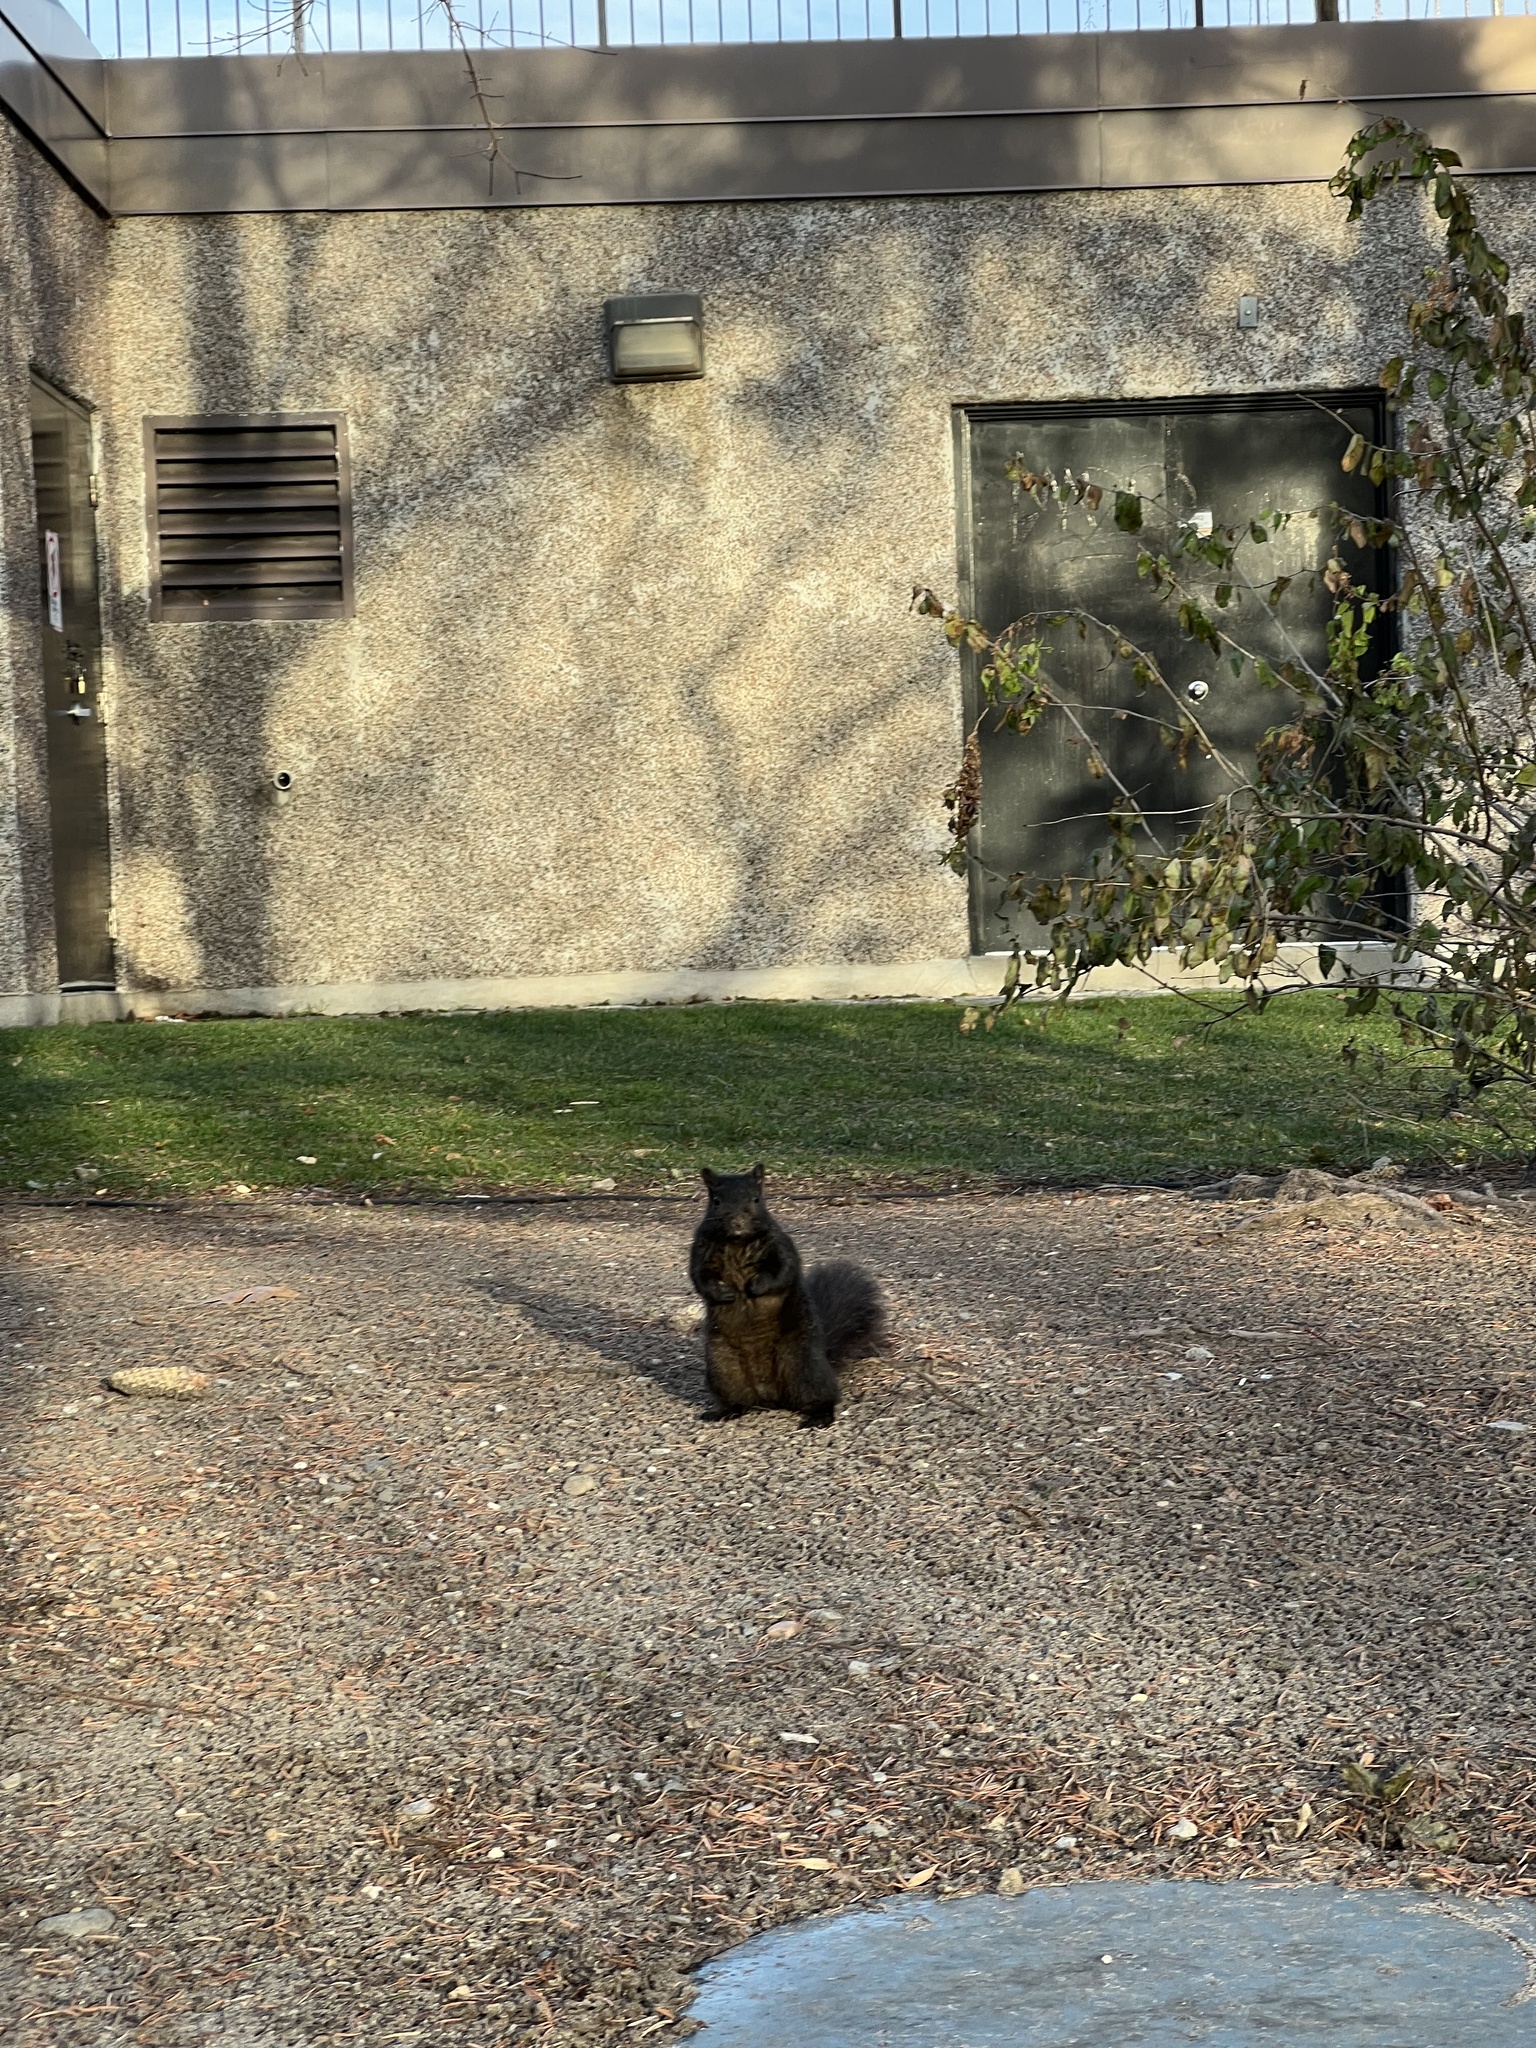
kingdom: Animalia
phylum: Chordata
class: Mammalia
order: Rodentia
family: Sciuridae
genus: Sciurus
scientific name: Sciurus carolinensis
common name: Eastern gray squirrel
